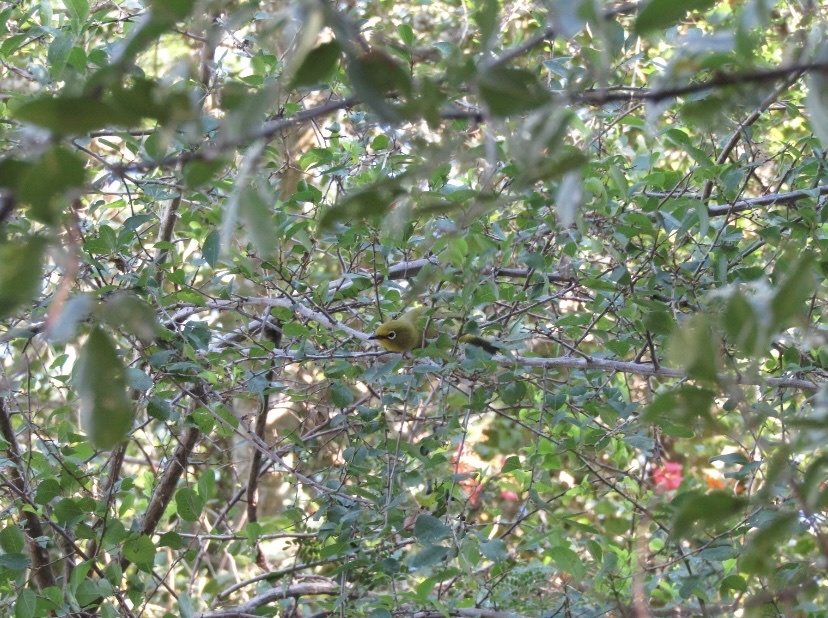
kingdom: Animalia
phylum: Chordata
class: Aves
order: Passeriformes
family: Zosteropidae
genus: Zosterops
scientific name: Zosterops virens
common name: Cape white-eye
